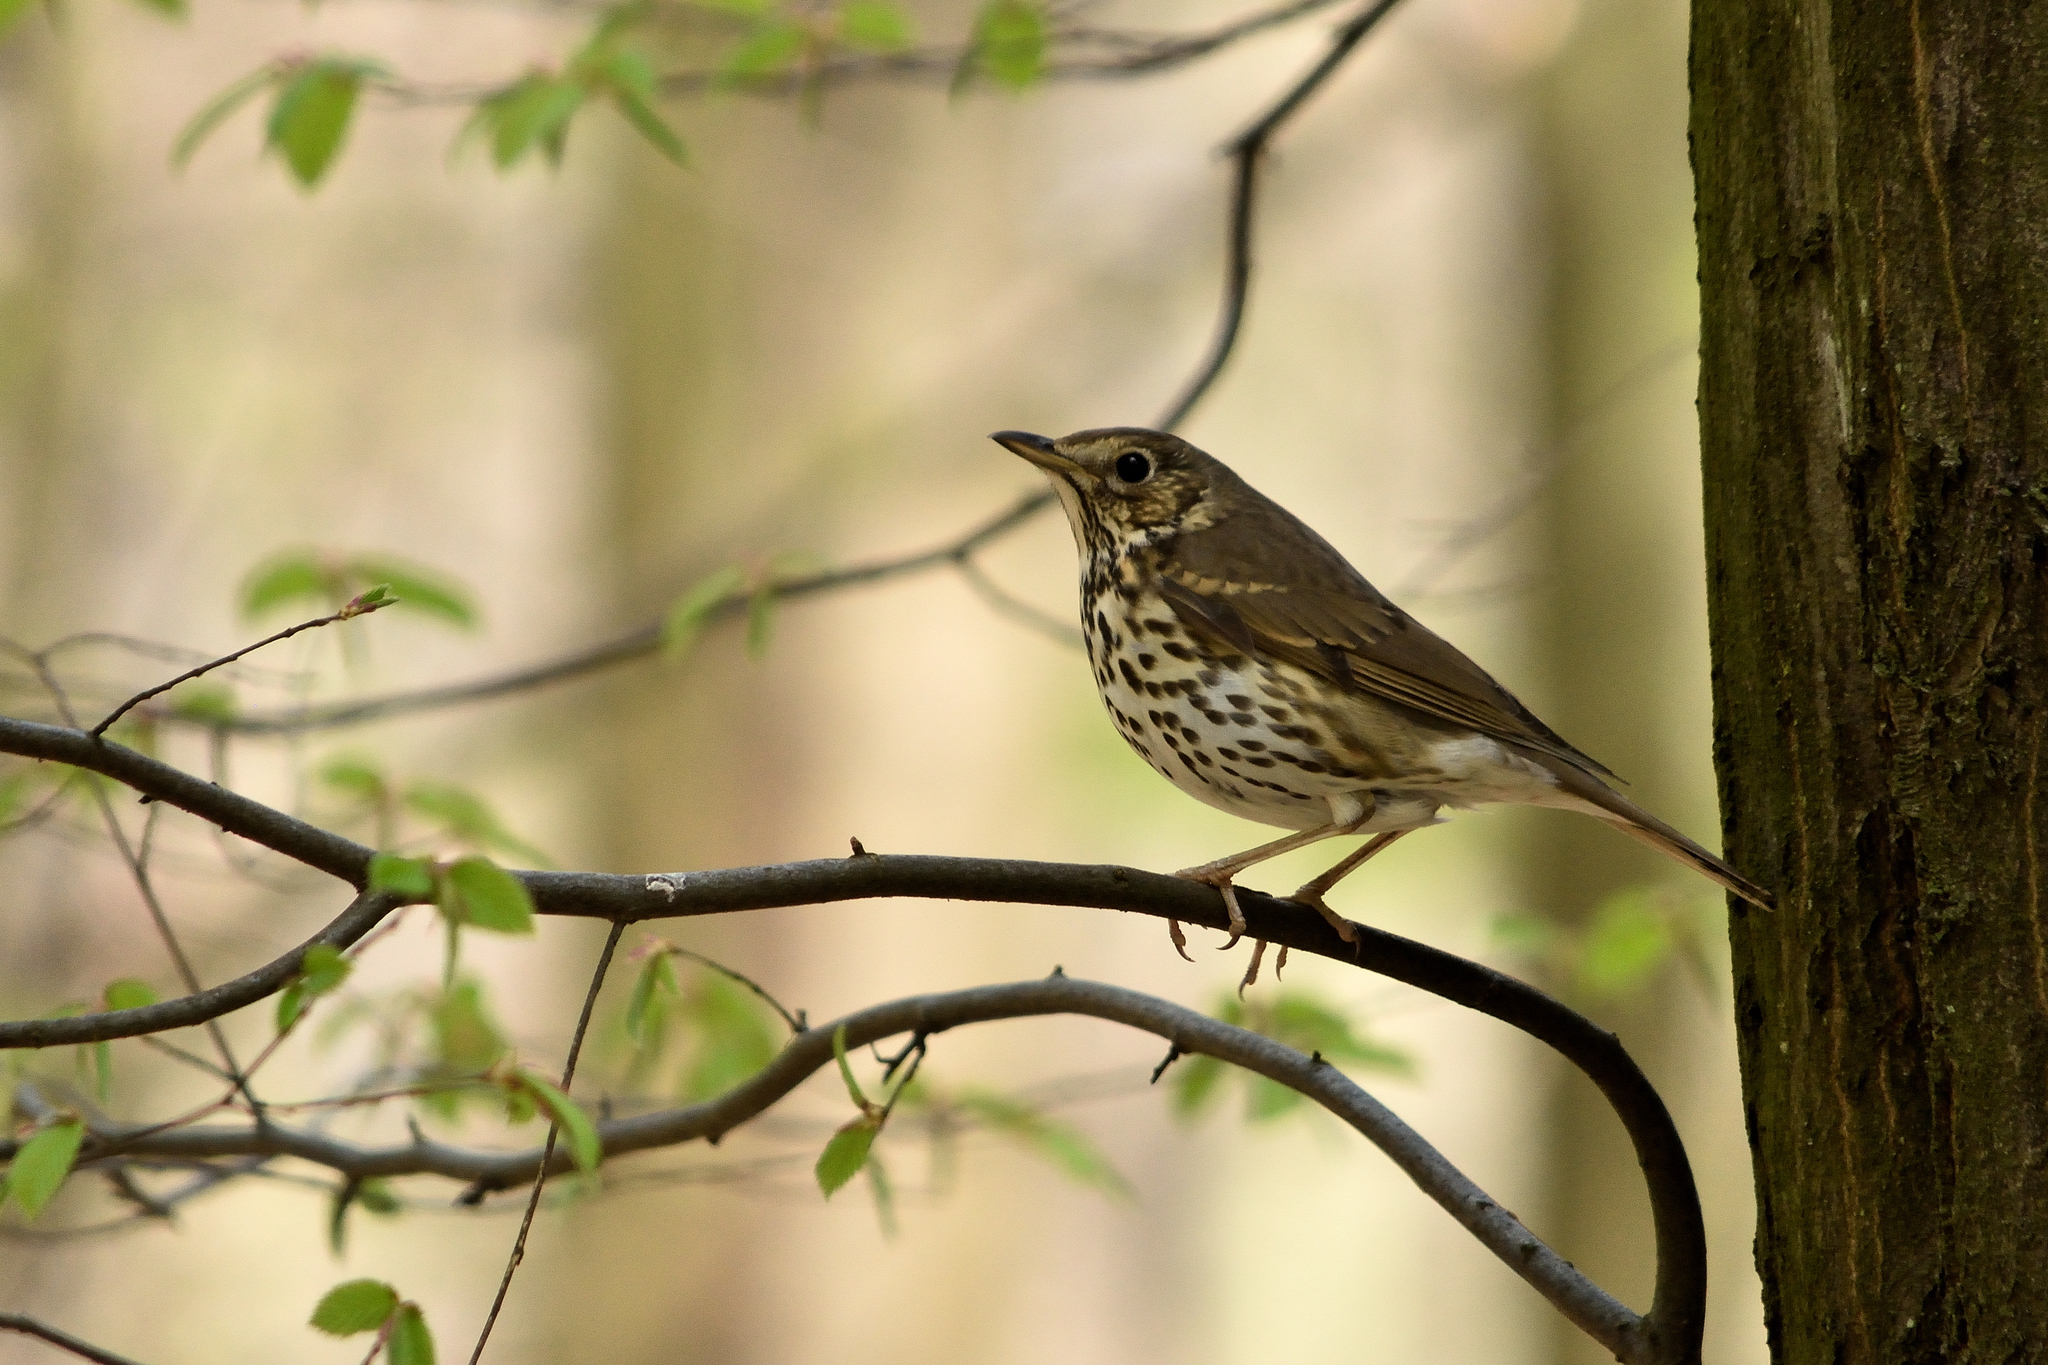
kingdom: Animalia
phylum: Chordata
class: Aves
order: Passeriformes
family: Turdidae
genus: Turdus
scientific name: Turdus philomelos
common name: Song thrush
